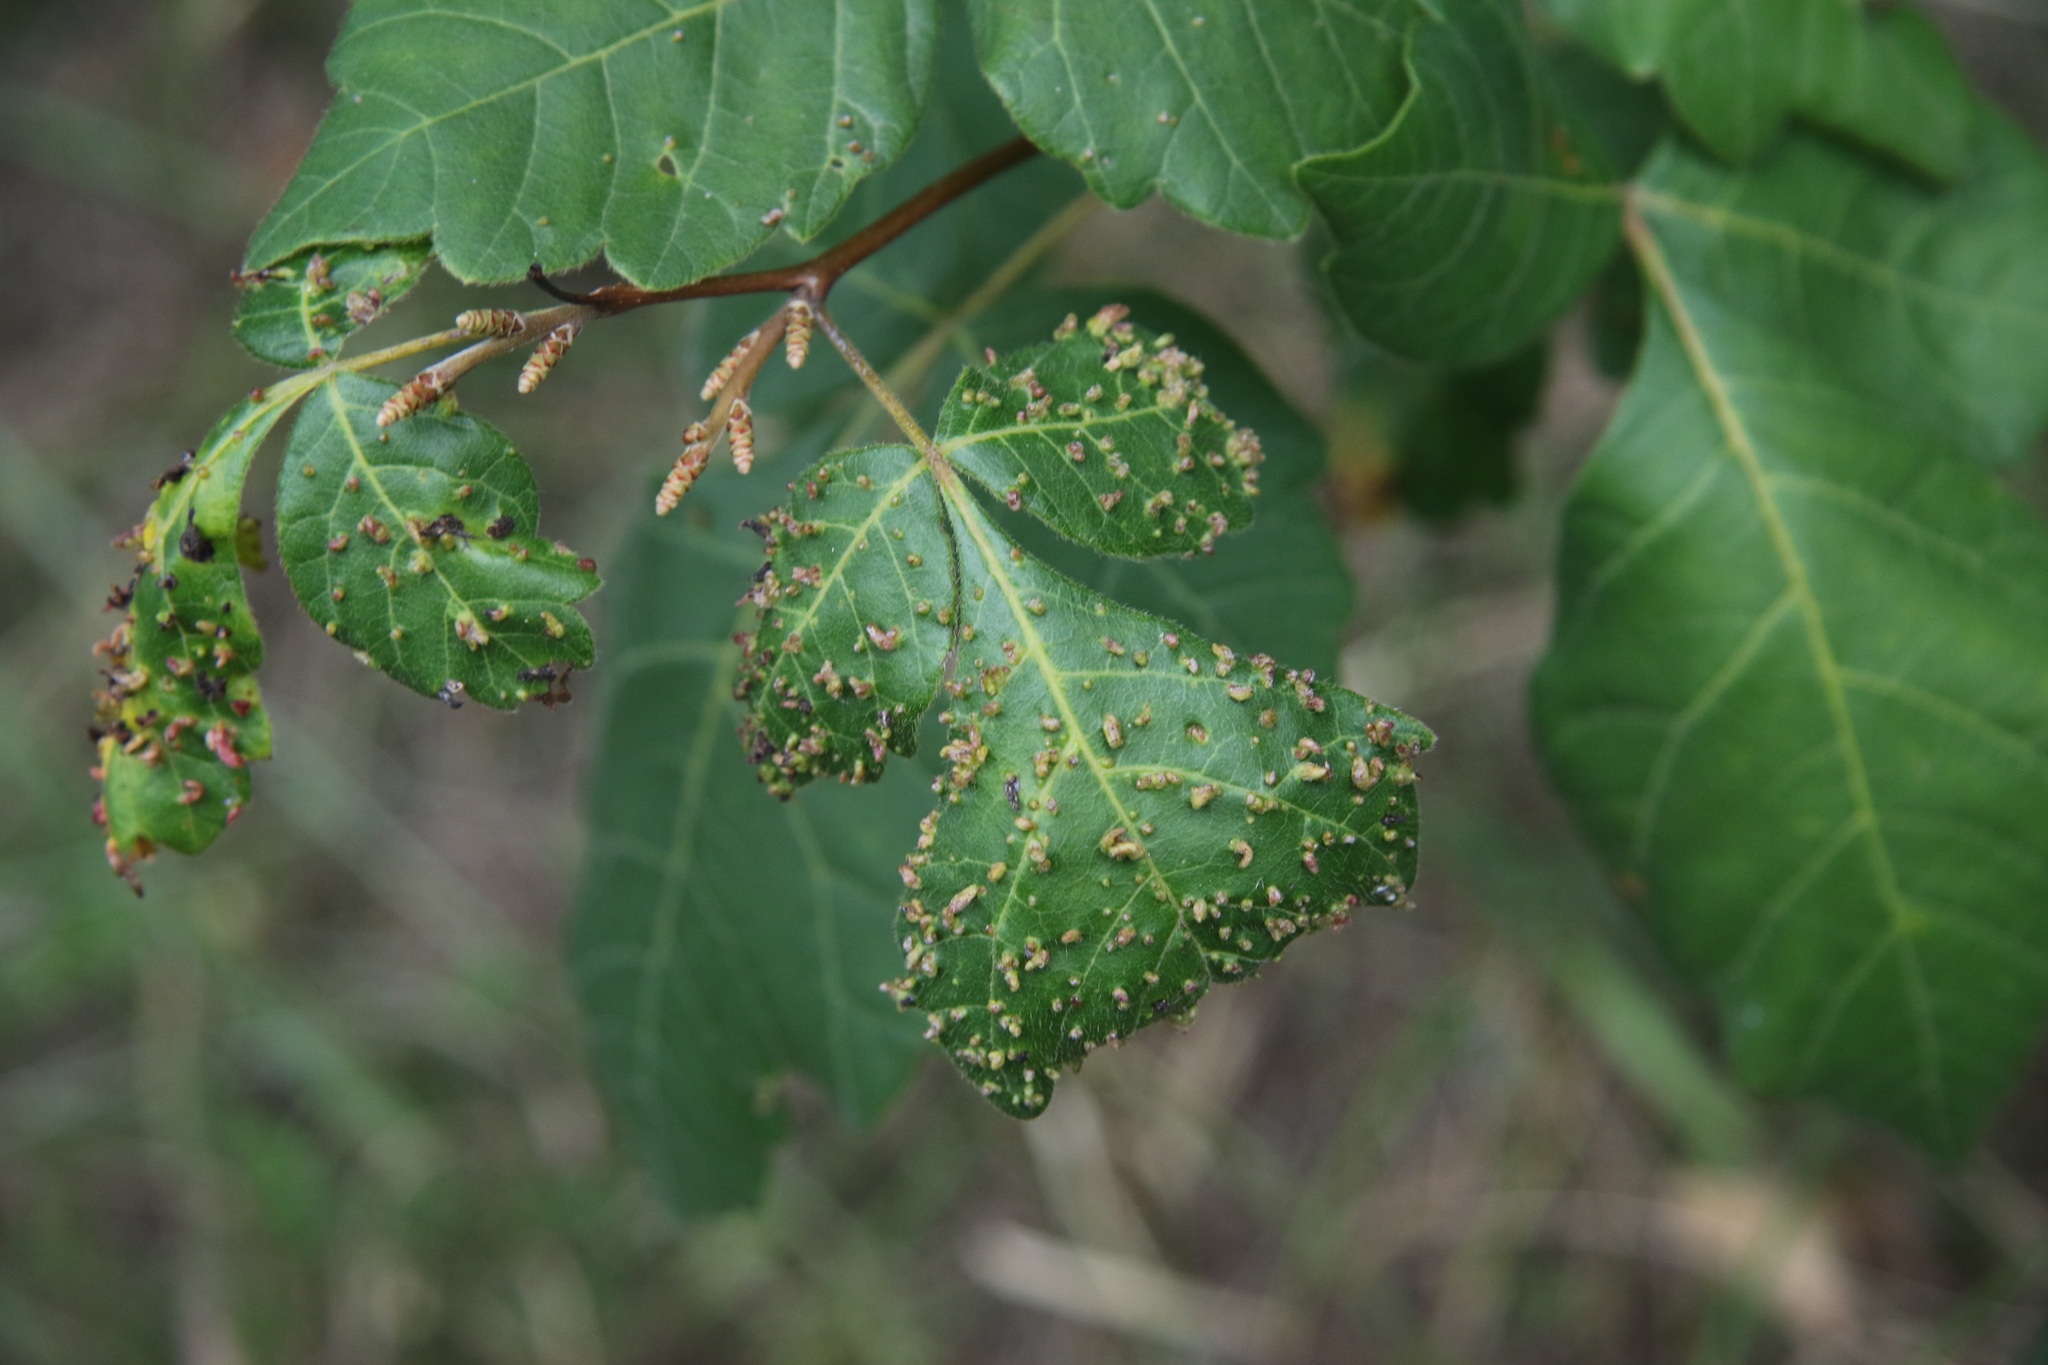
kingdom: Animalia
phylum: Arthropoda
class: Arachnida
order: Trombidiformes
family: Eriophyidae
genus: Aculops
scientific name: Aculops
